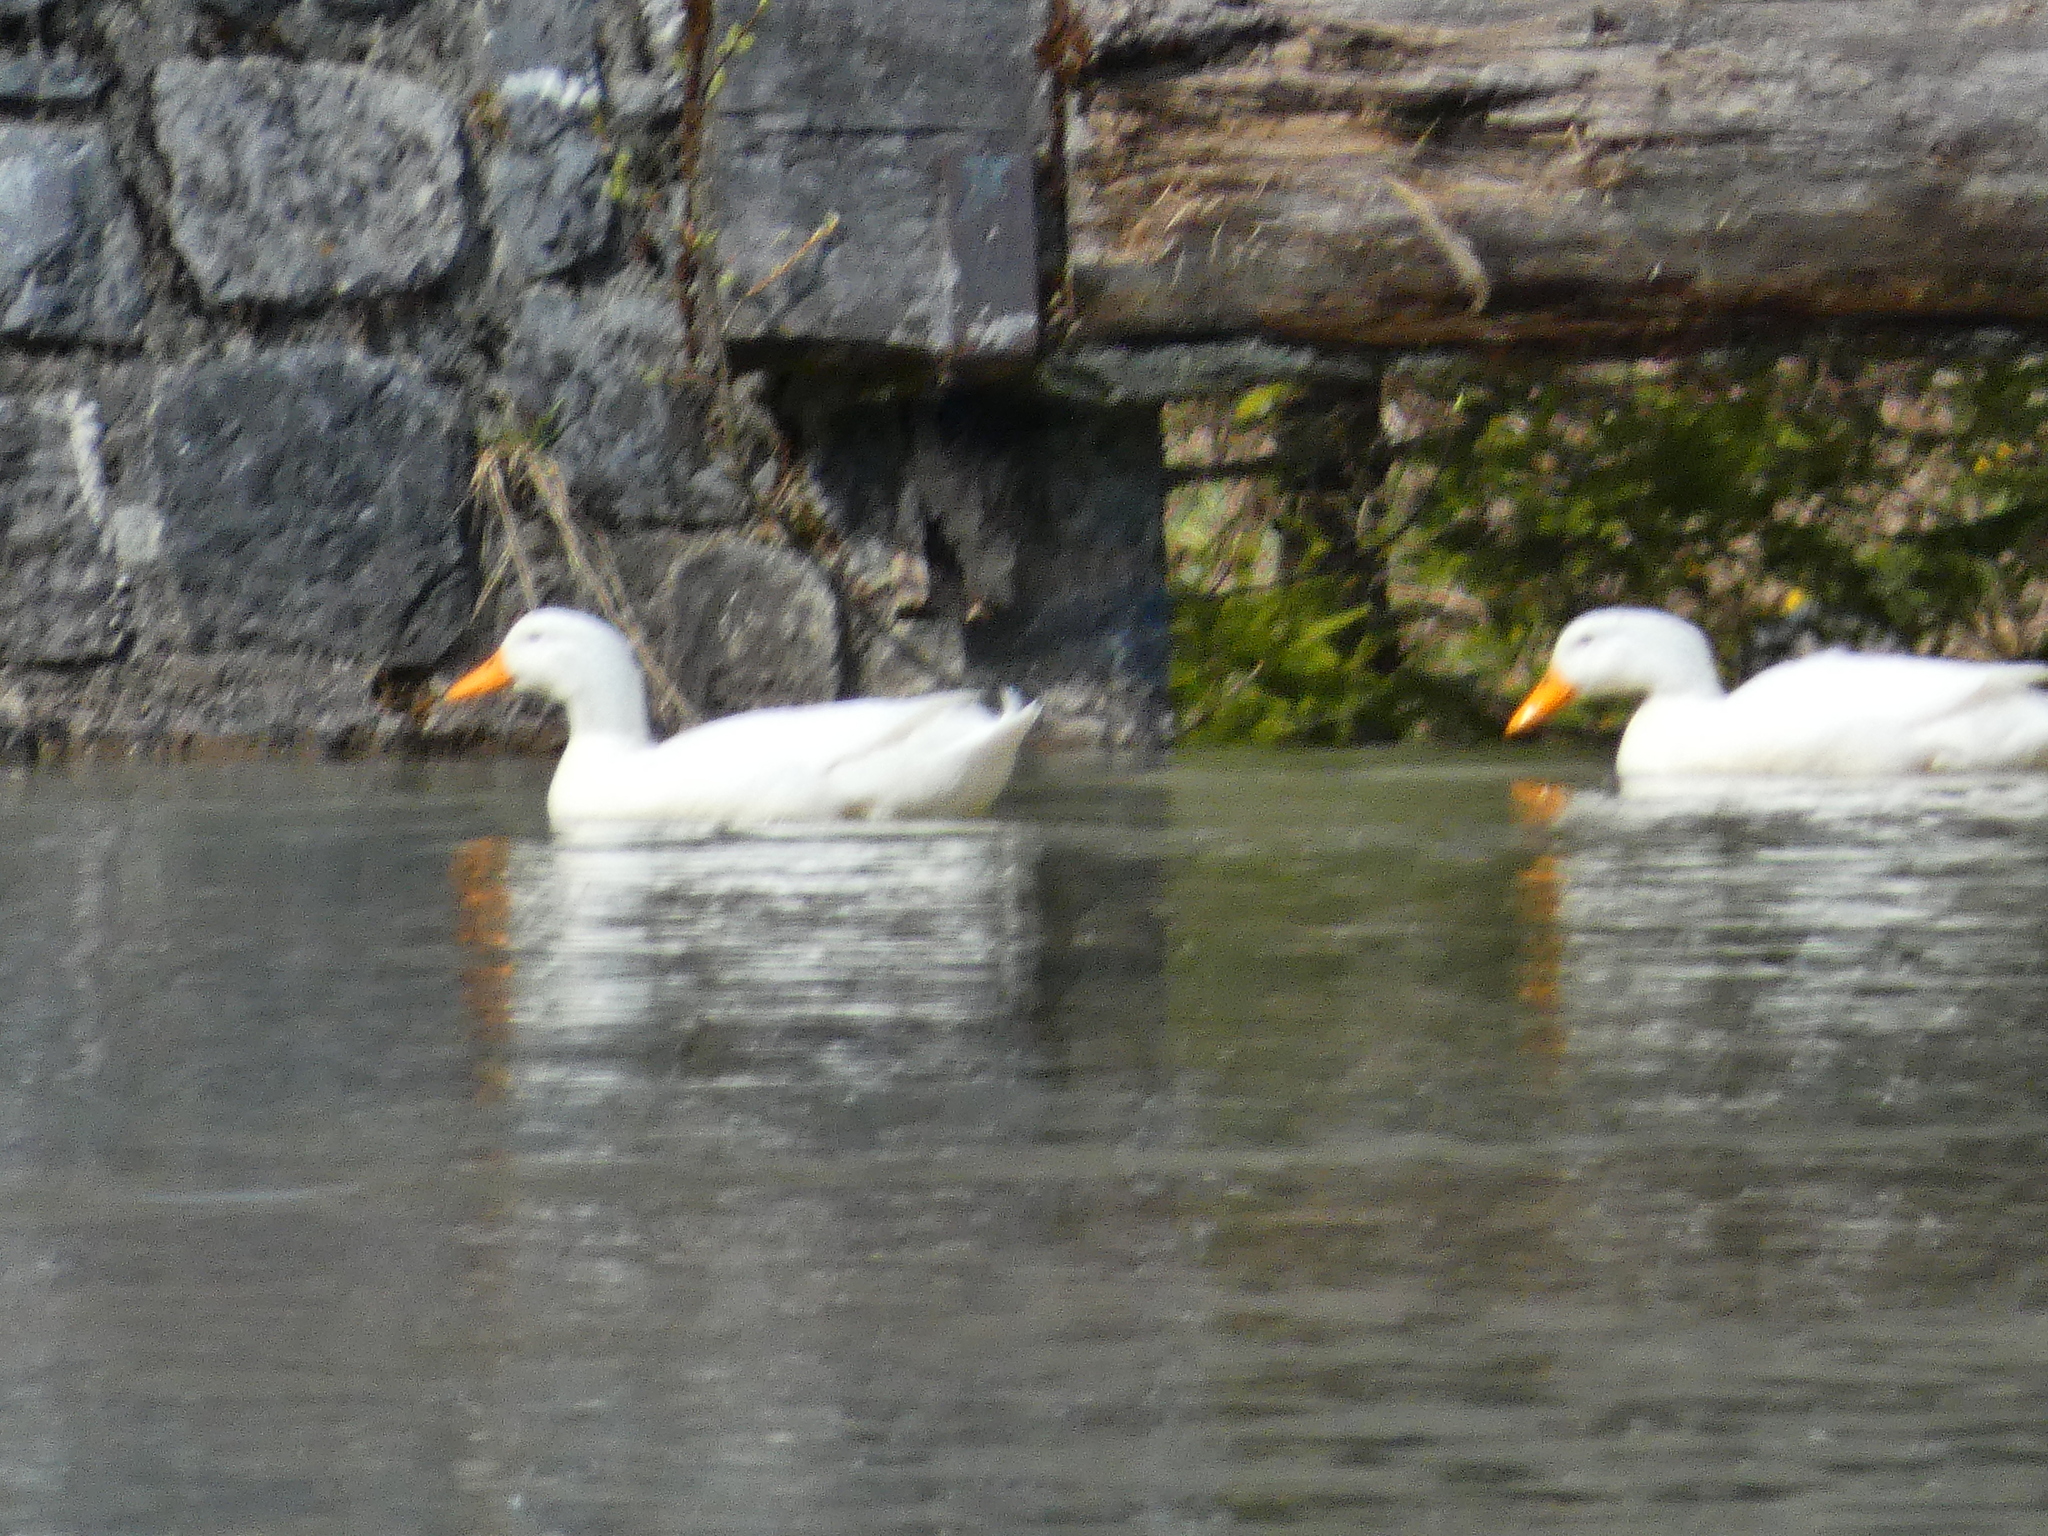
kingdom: Animalia
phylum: Chordata
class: Aves
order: Anseriformes
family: Anatidae
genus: Anas
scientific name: Anas platyrhynchos
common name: Mallard
